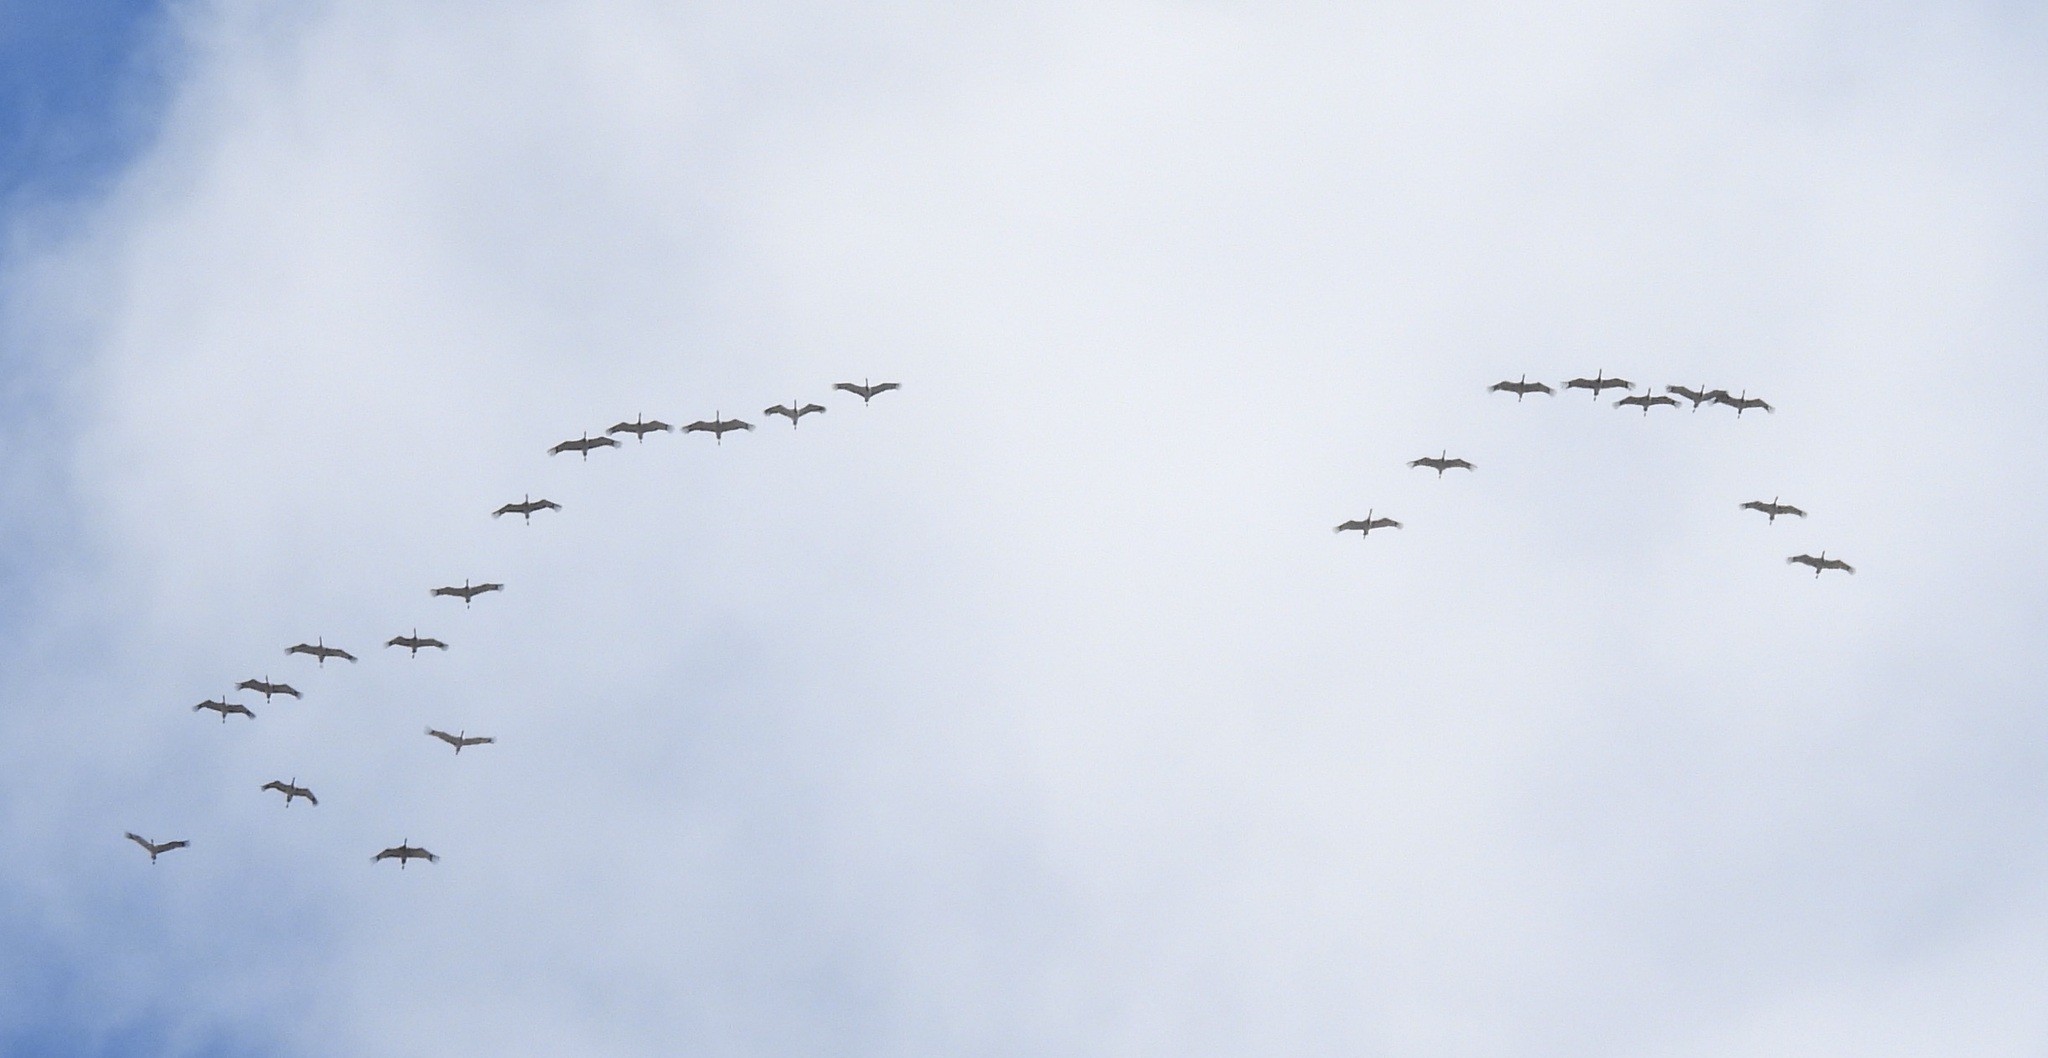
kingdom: Animalia
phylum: Chordata
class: Aves
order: Gruiformes
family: Gruidae
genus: Grus
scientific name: Grus canadensis
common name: Sandhill crane
